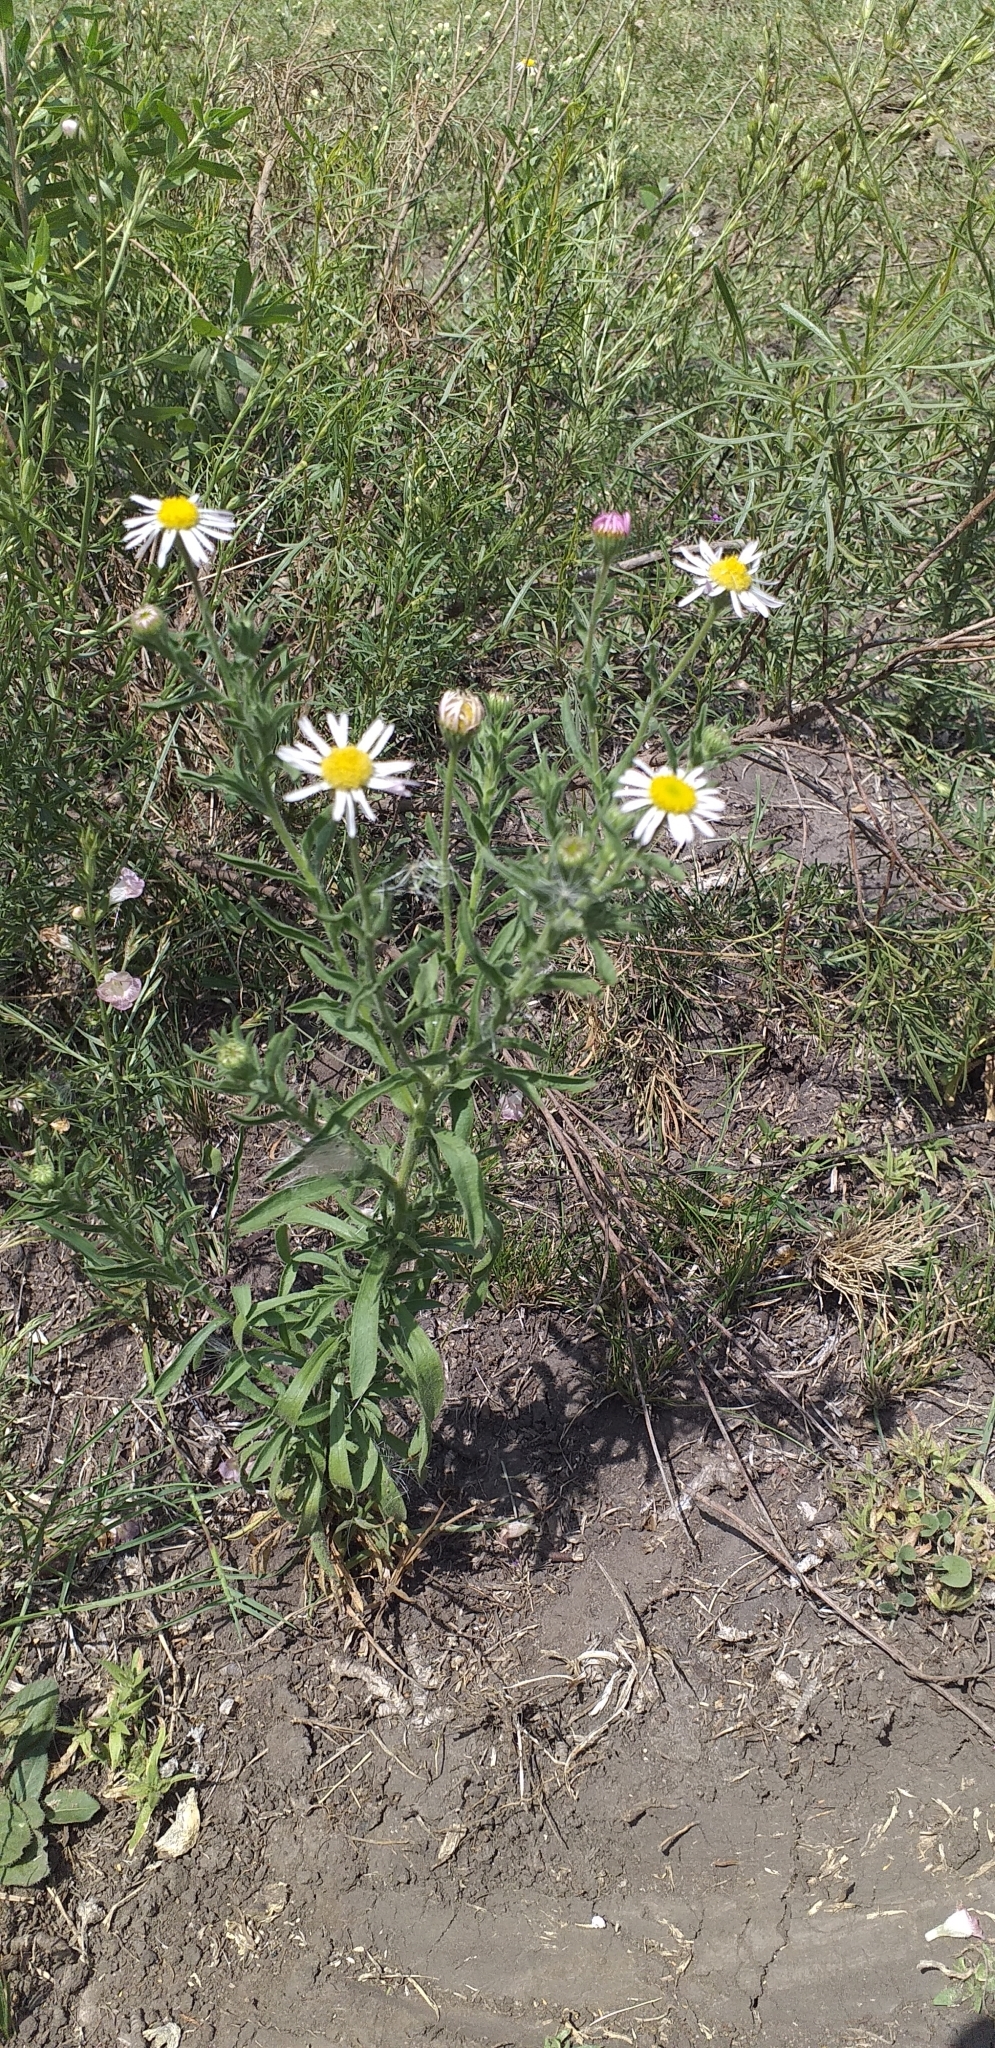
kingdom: Plantae
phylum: Tracheophyta
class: Magnoliopsida
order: Asterales
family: Asteraceae
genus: Hysterionica
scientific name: Hysterionica resinosa
